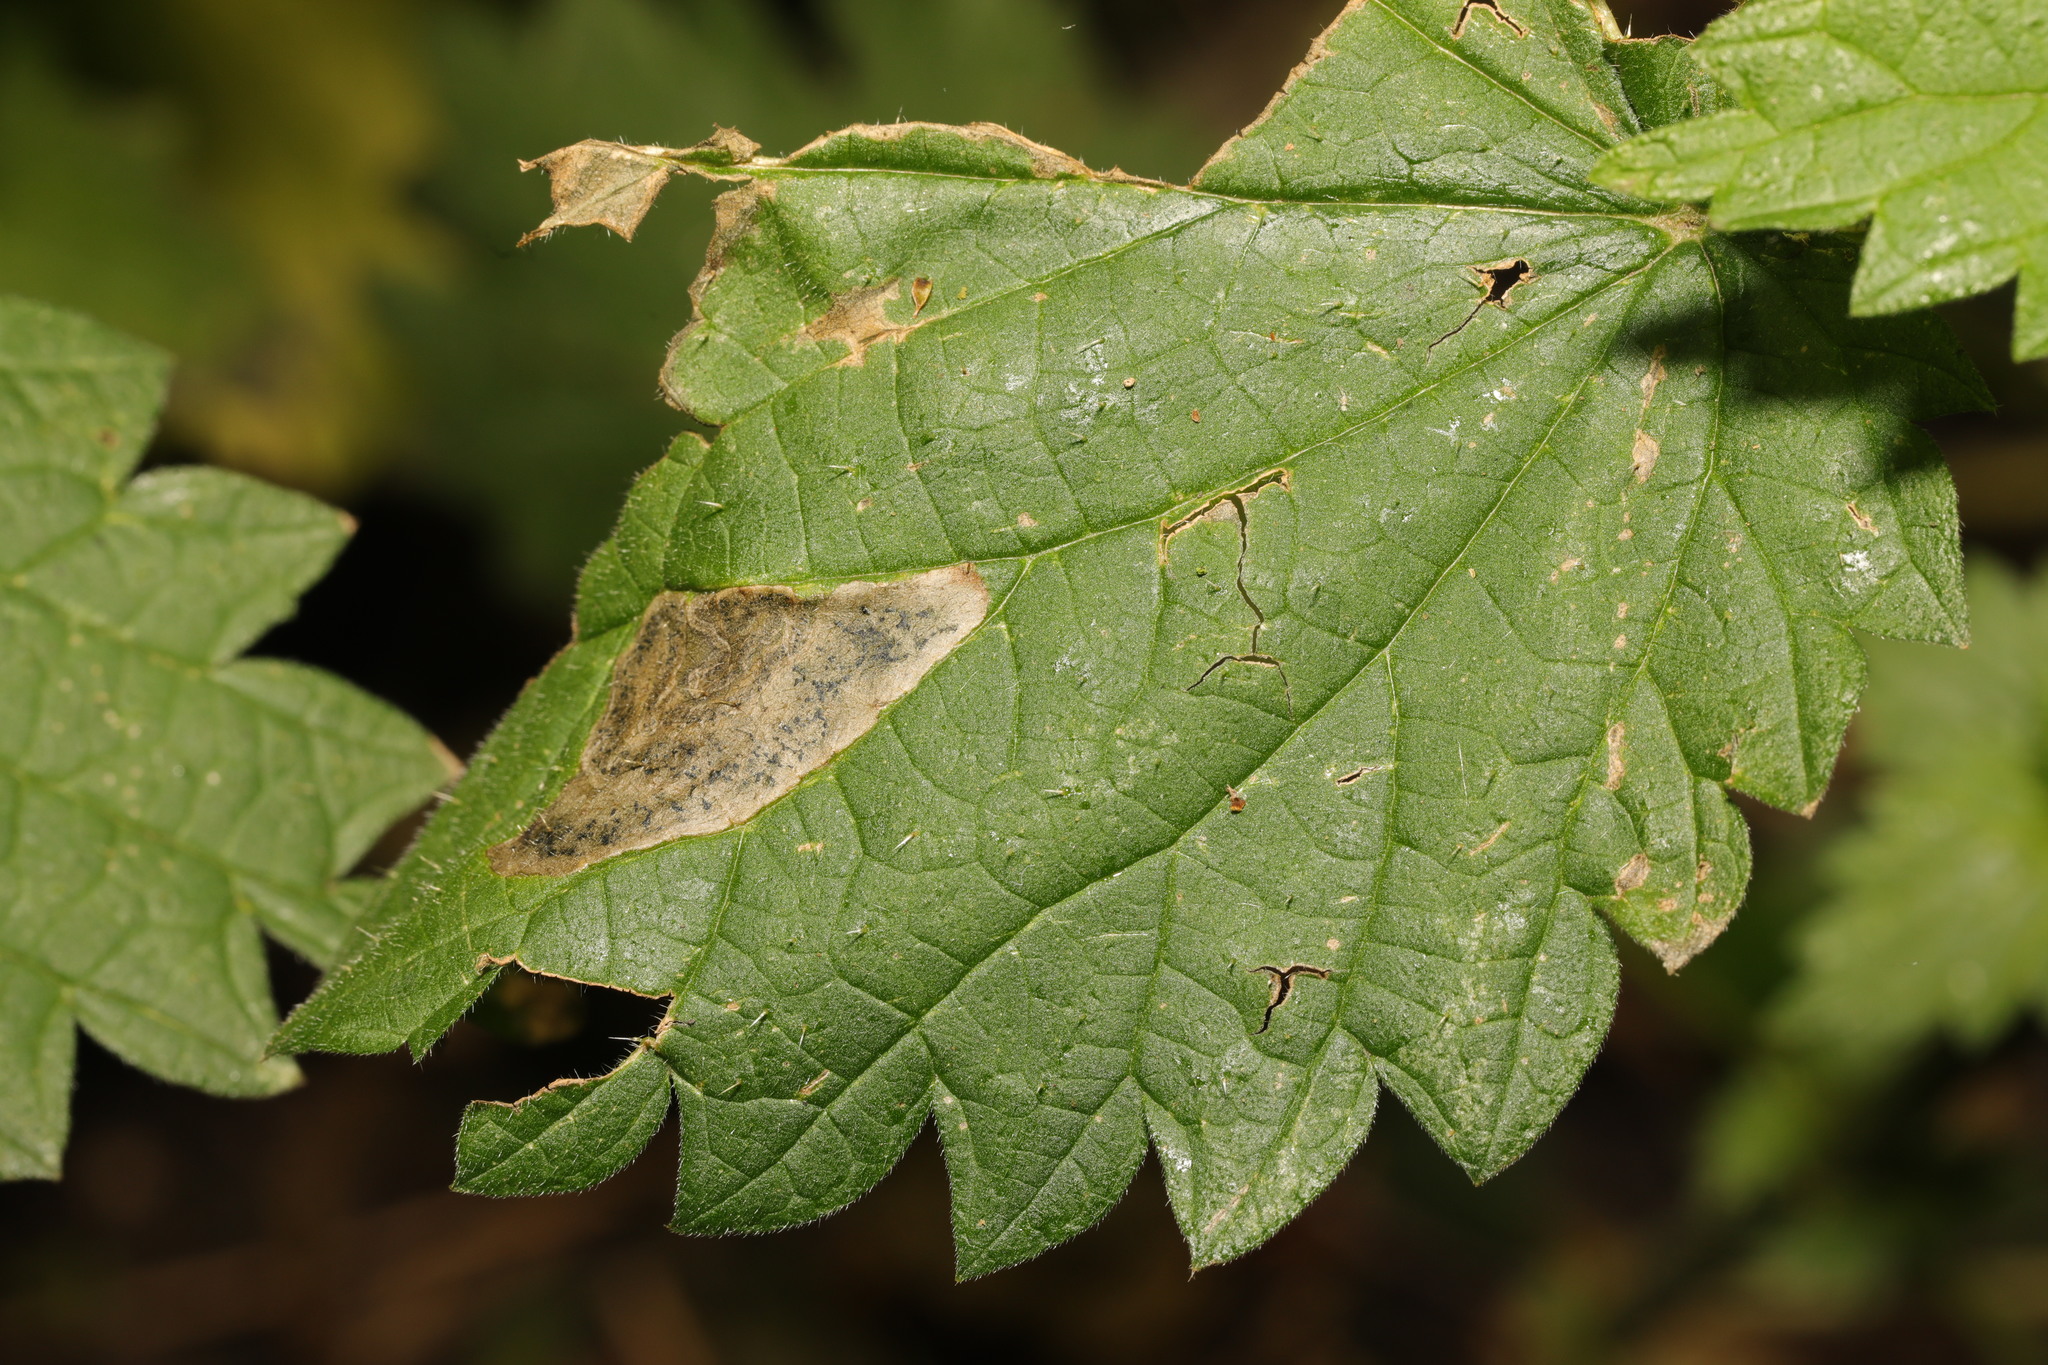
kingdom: Animalia
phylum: Arthropoda
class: Insecta
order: Diptera
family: Agromyzidae
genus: Agromyza
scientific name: Agromyza anthracina
